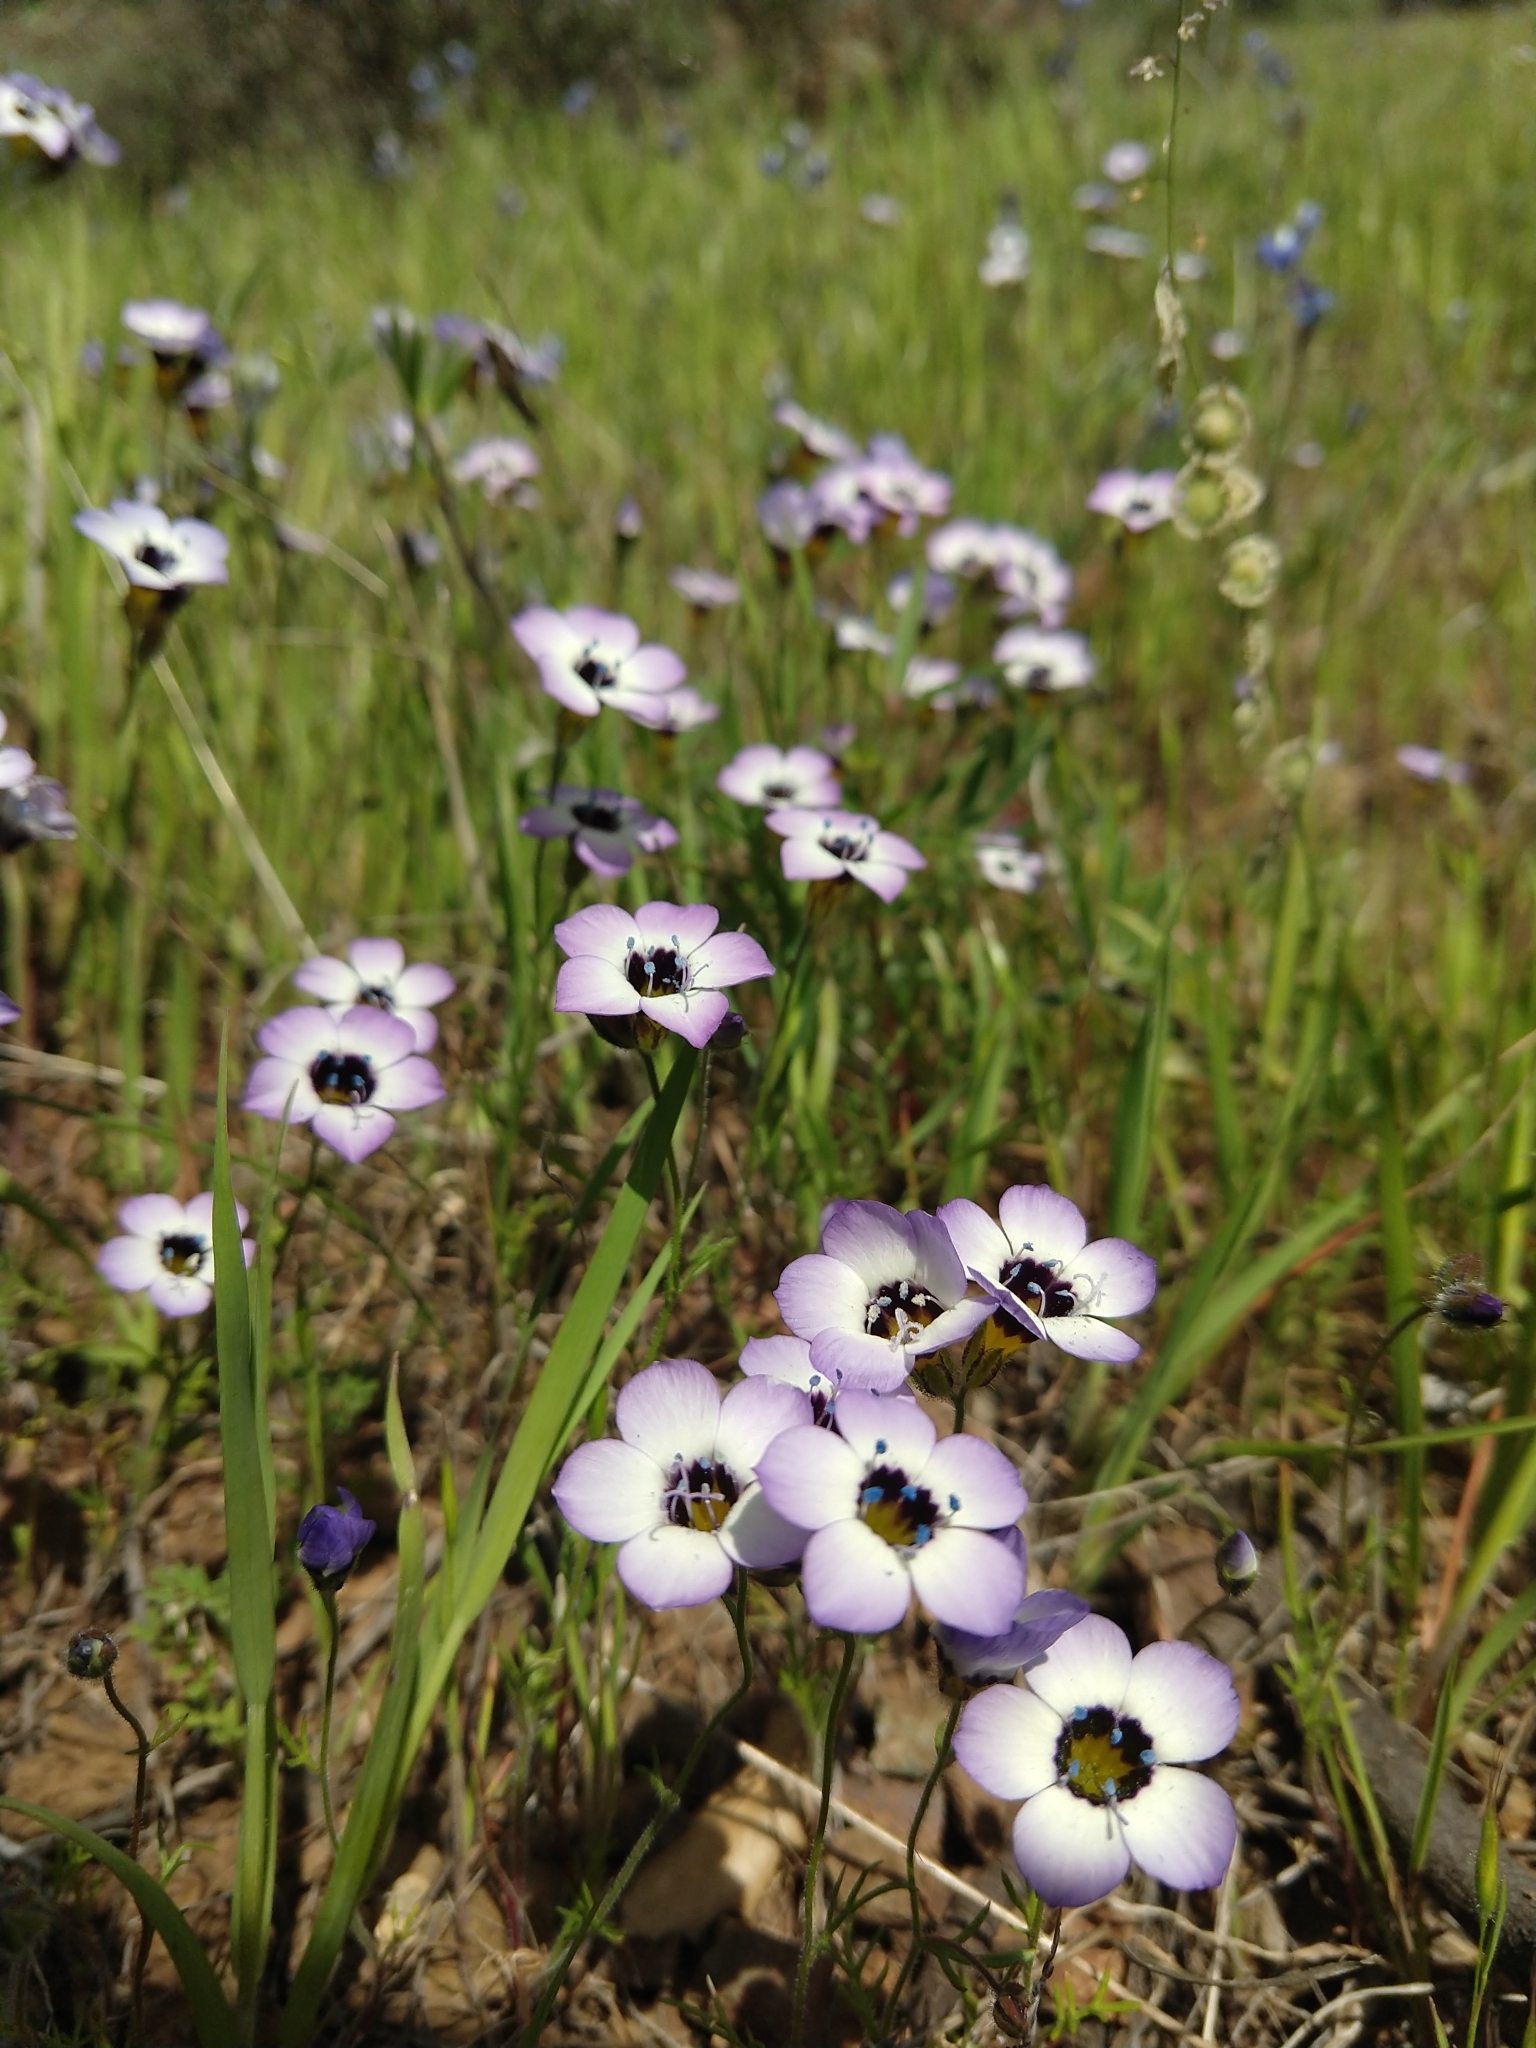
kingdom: Plantae
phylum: Tracheophyta
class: Magnoliopsida
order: Ericales
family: Polemoniaceae
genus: Gilia
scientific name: Gilia tricolor
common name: Bird's-eyes
